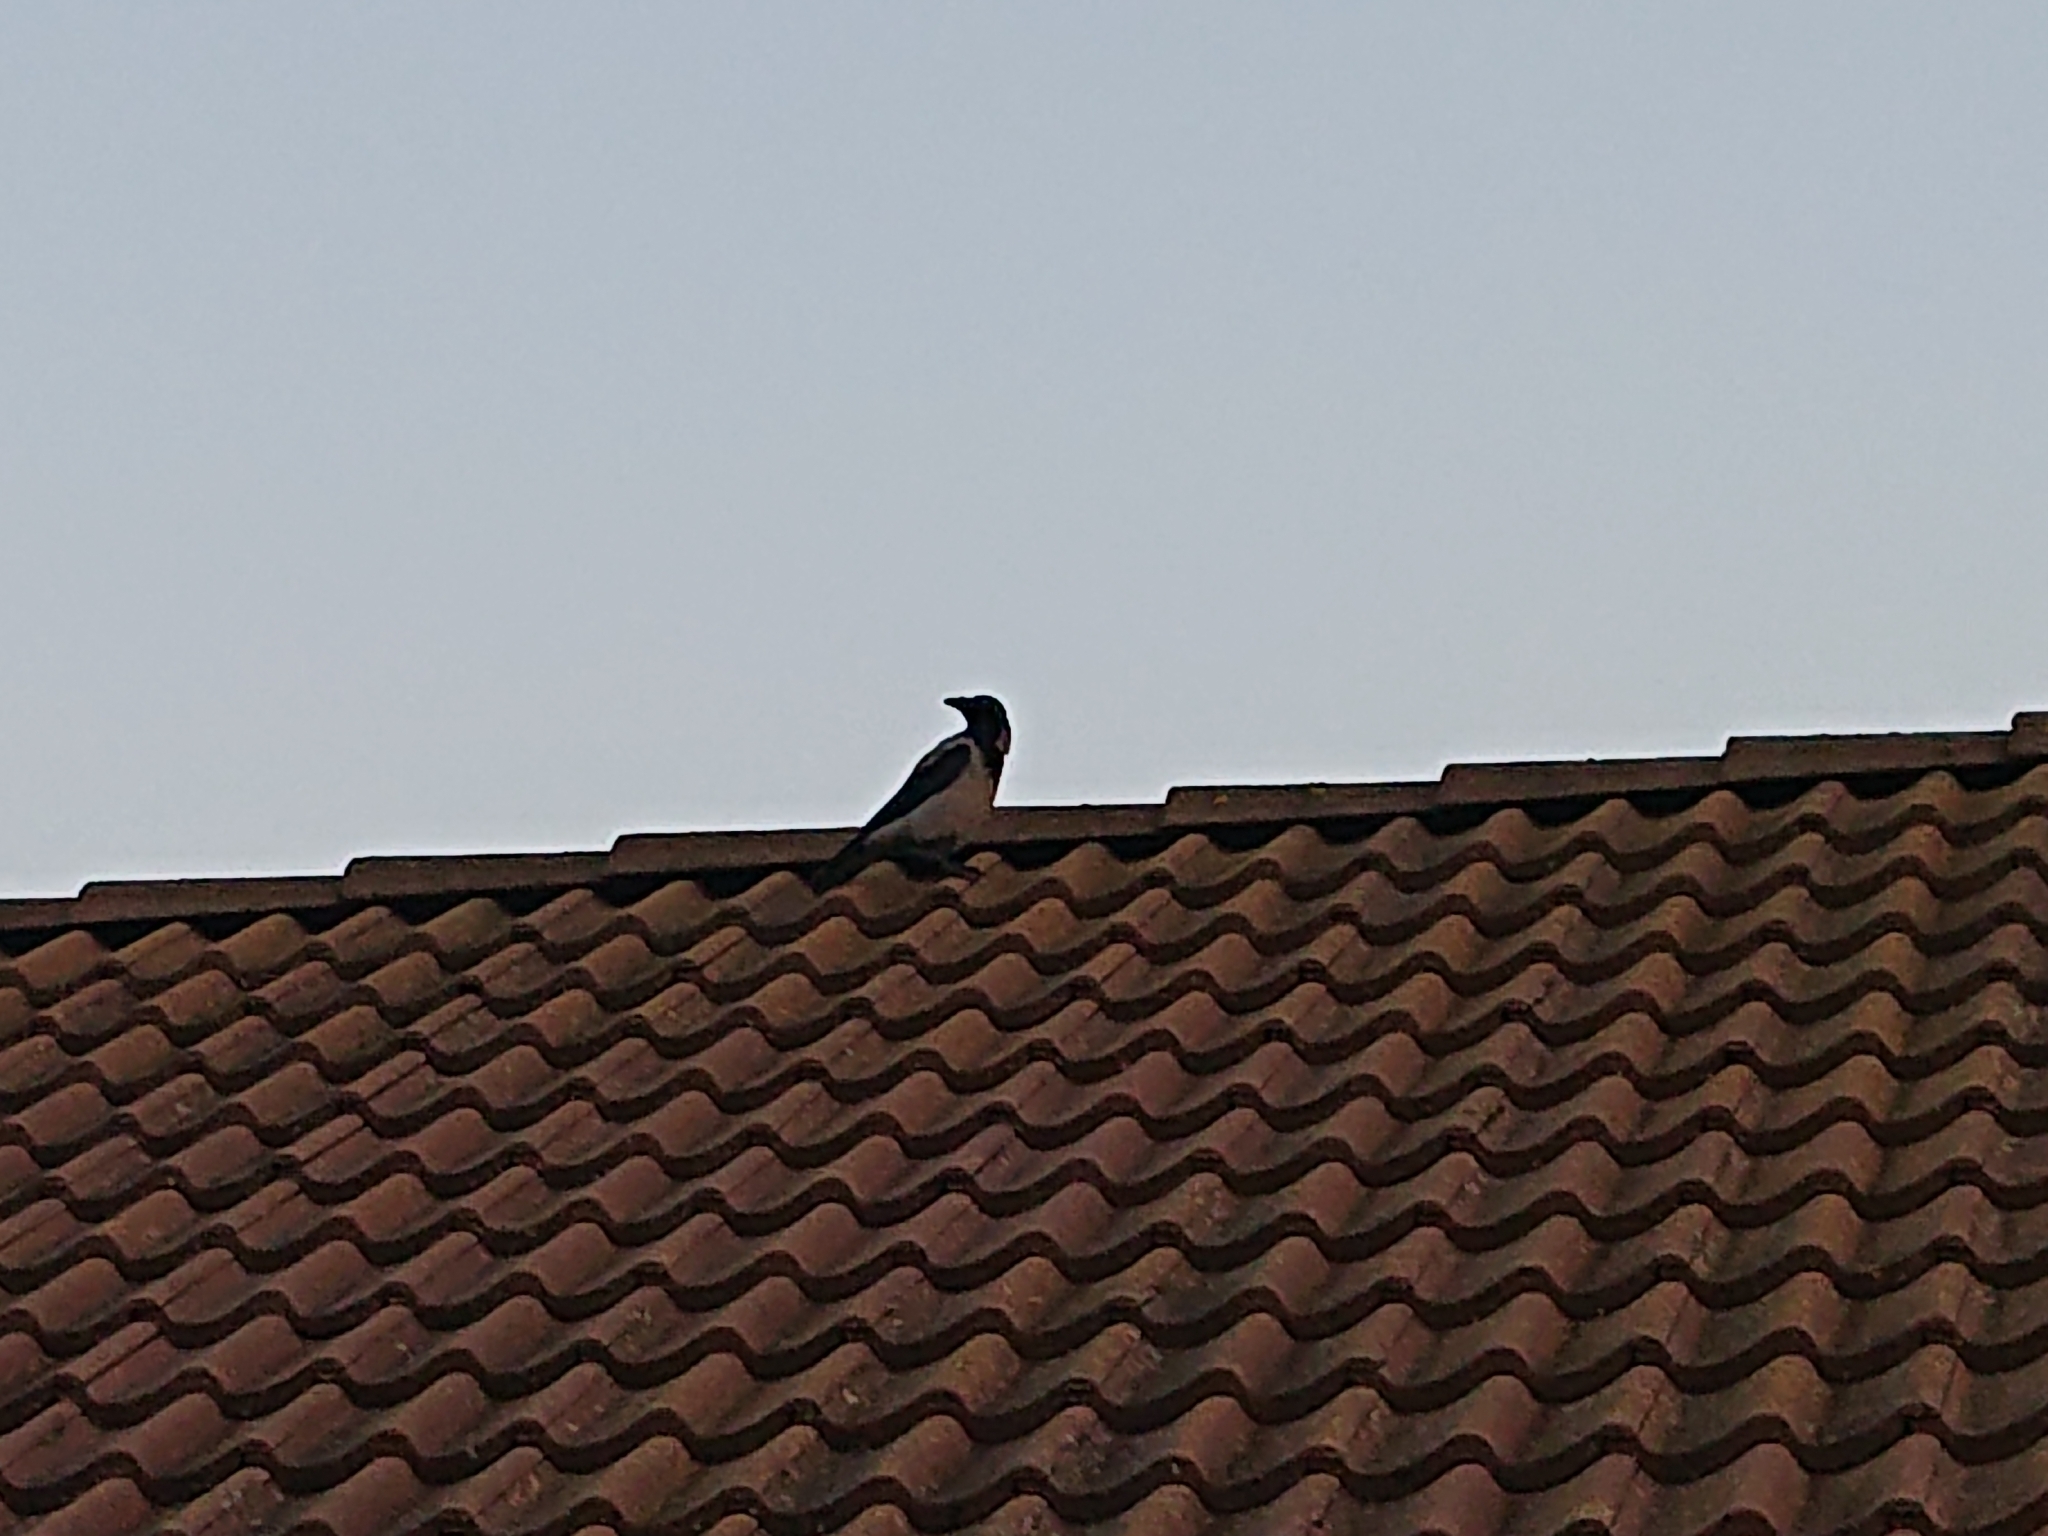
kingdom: Animalia
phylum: Chordata
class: Aves
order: Passeriformes
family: Corvidae
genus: Corvus
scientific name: Corvus cornix
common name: Hooded crow
